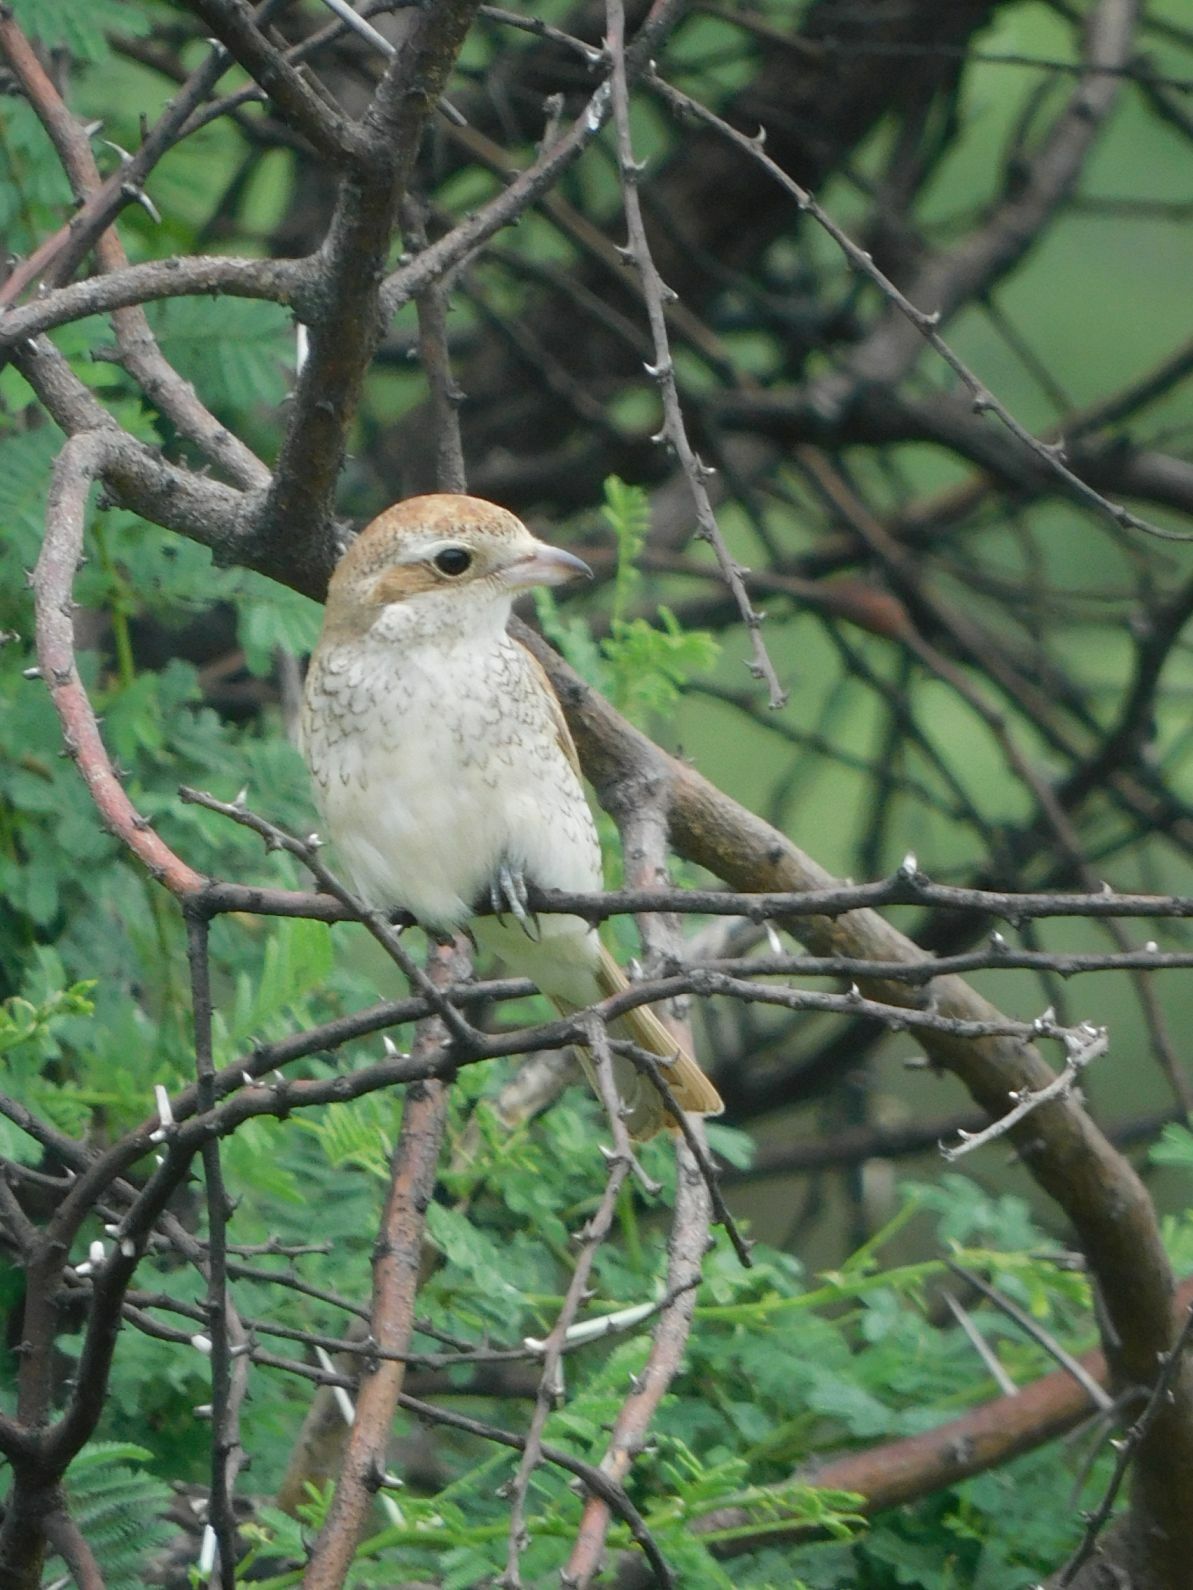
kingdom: Animalia
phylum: Chordata
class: Aves
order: Passeriformes
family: Laniidae
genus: Lanius
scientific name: Lanius collurio
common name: Red-backed shrike
